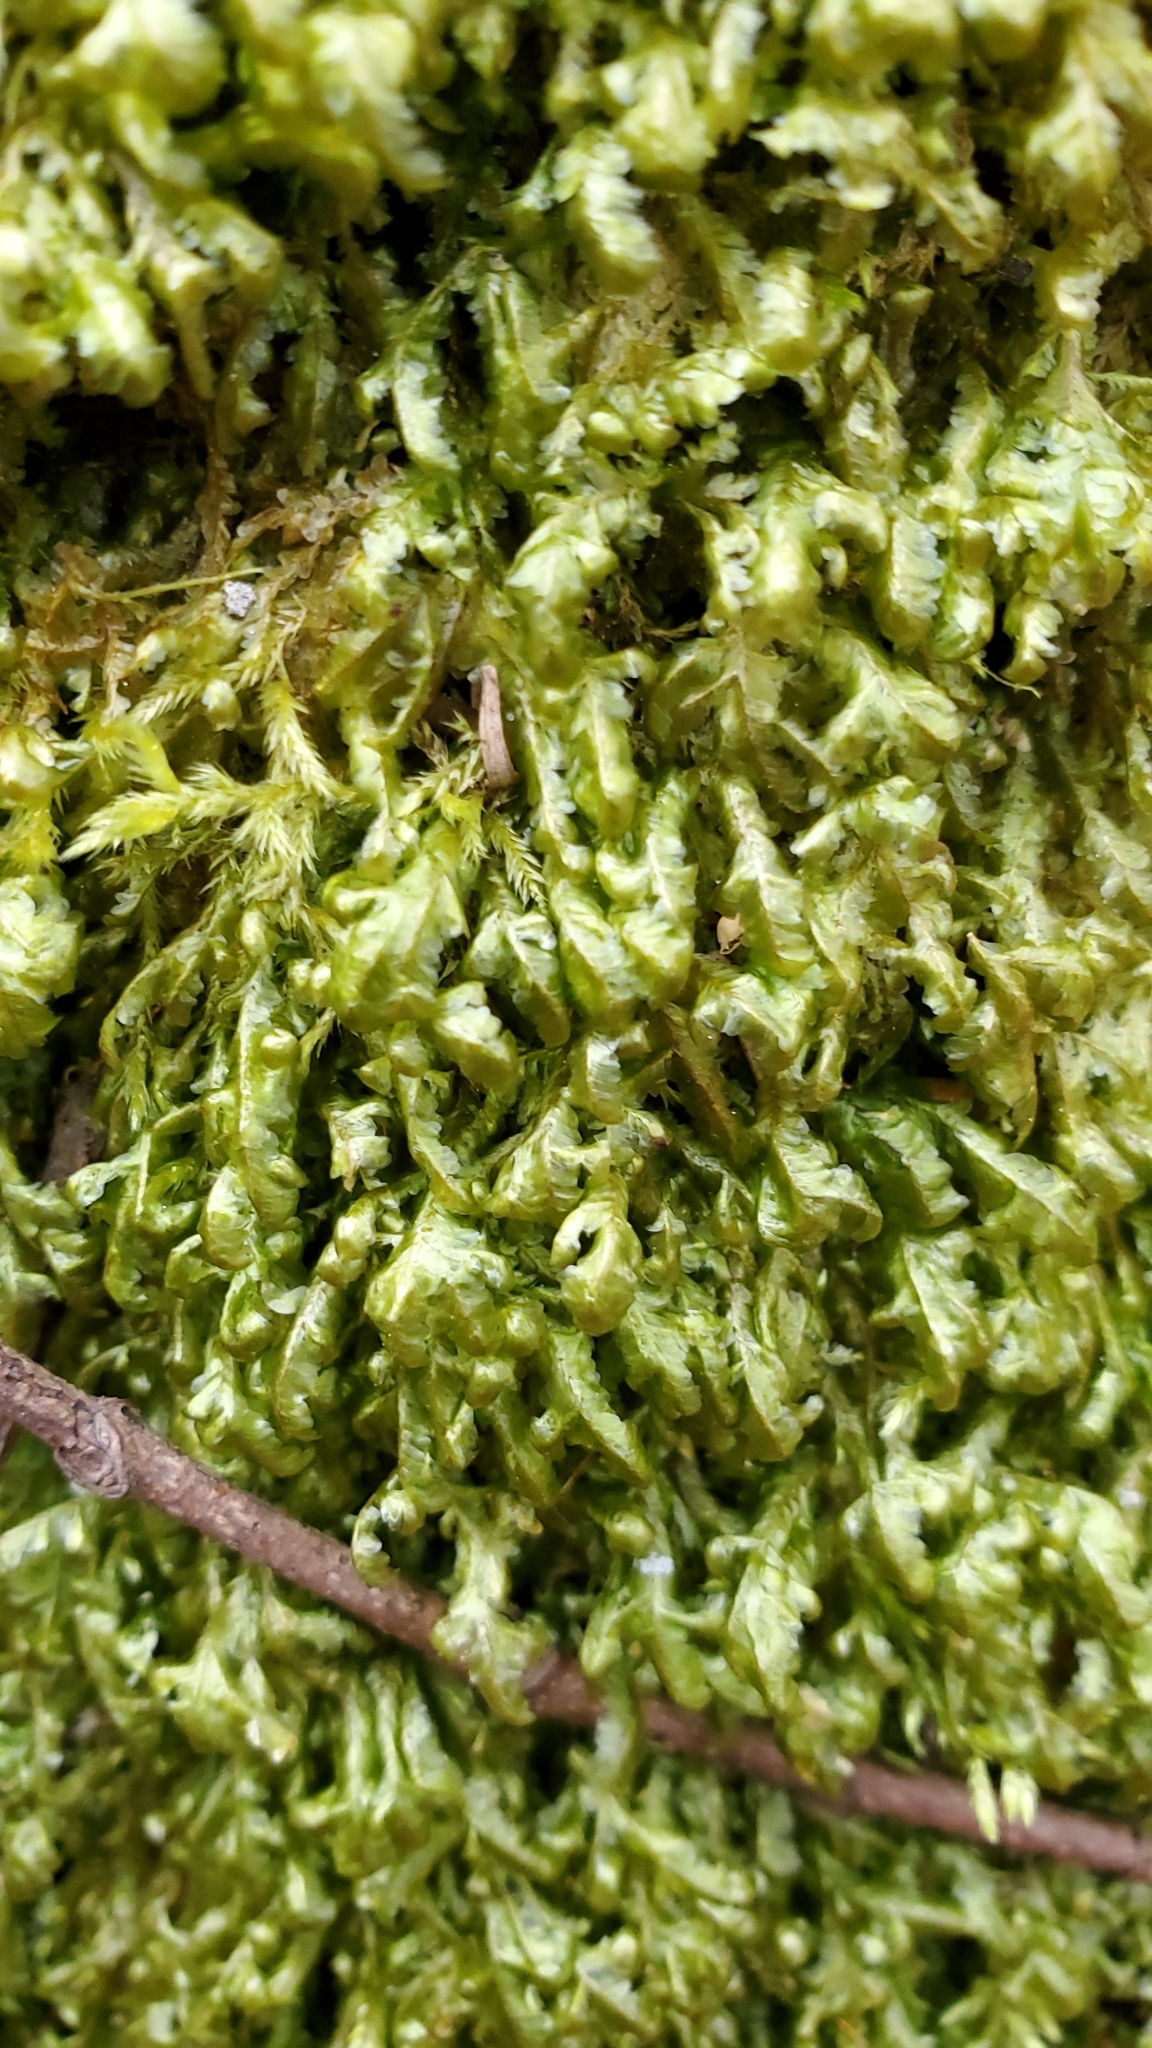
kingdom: Plantae
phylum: Bryophyta
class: Bryopsida
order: Hypnales
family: Neckeraceae
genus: Homalia
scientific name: Homalia trichomanoides
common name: Lime homalia moss
